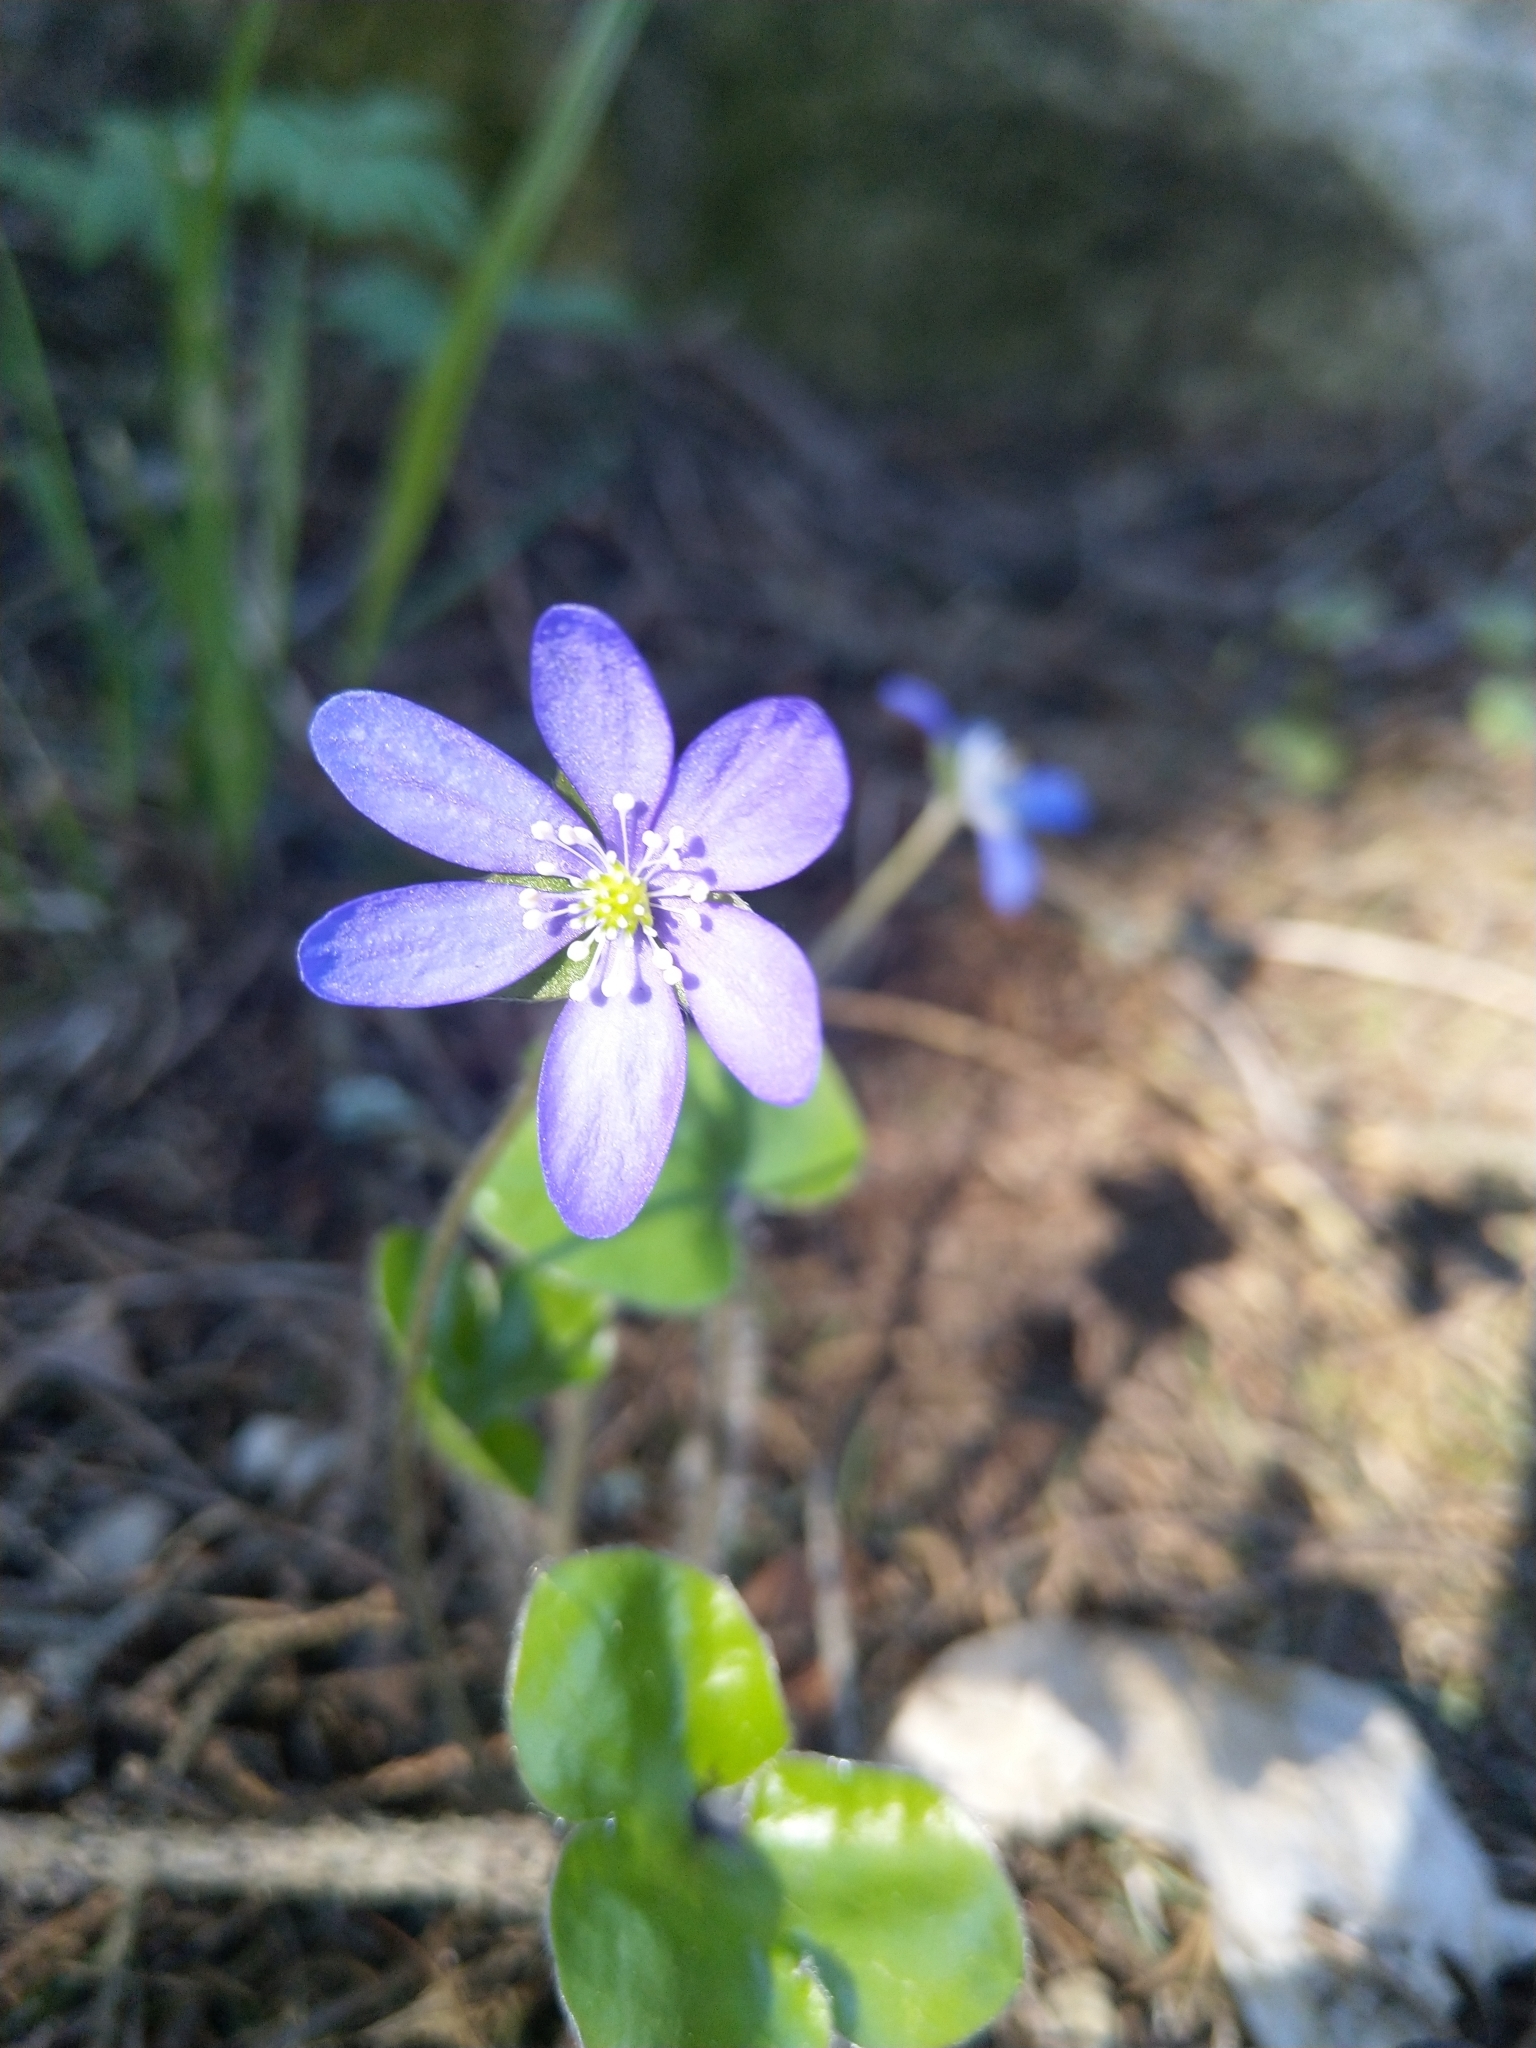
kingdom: Plantae
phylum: Tracheophyta
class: Magnoliopsida
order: Ranunculales
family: Ranunculaceae
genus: Hepatica
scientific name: Hepatica nobilis
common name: Liverleaf
